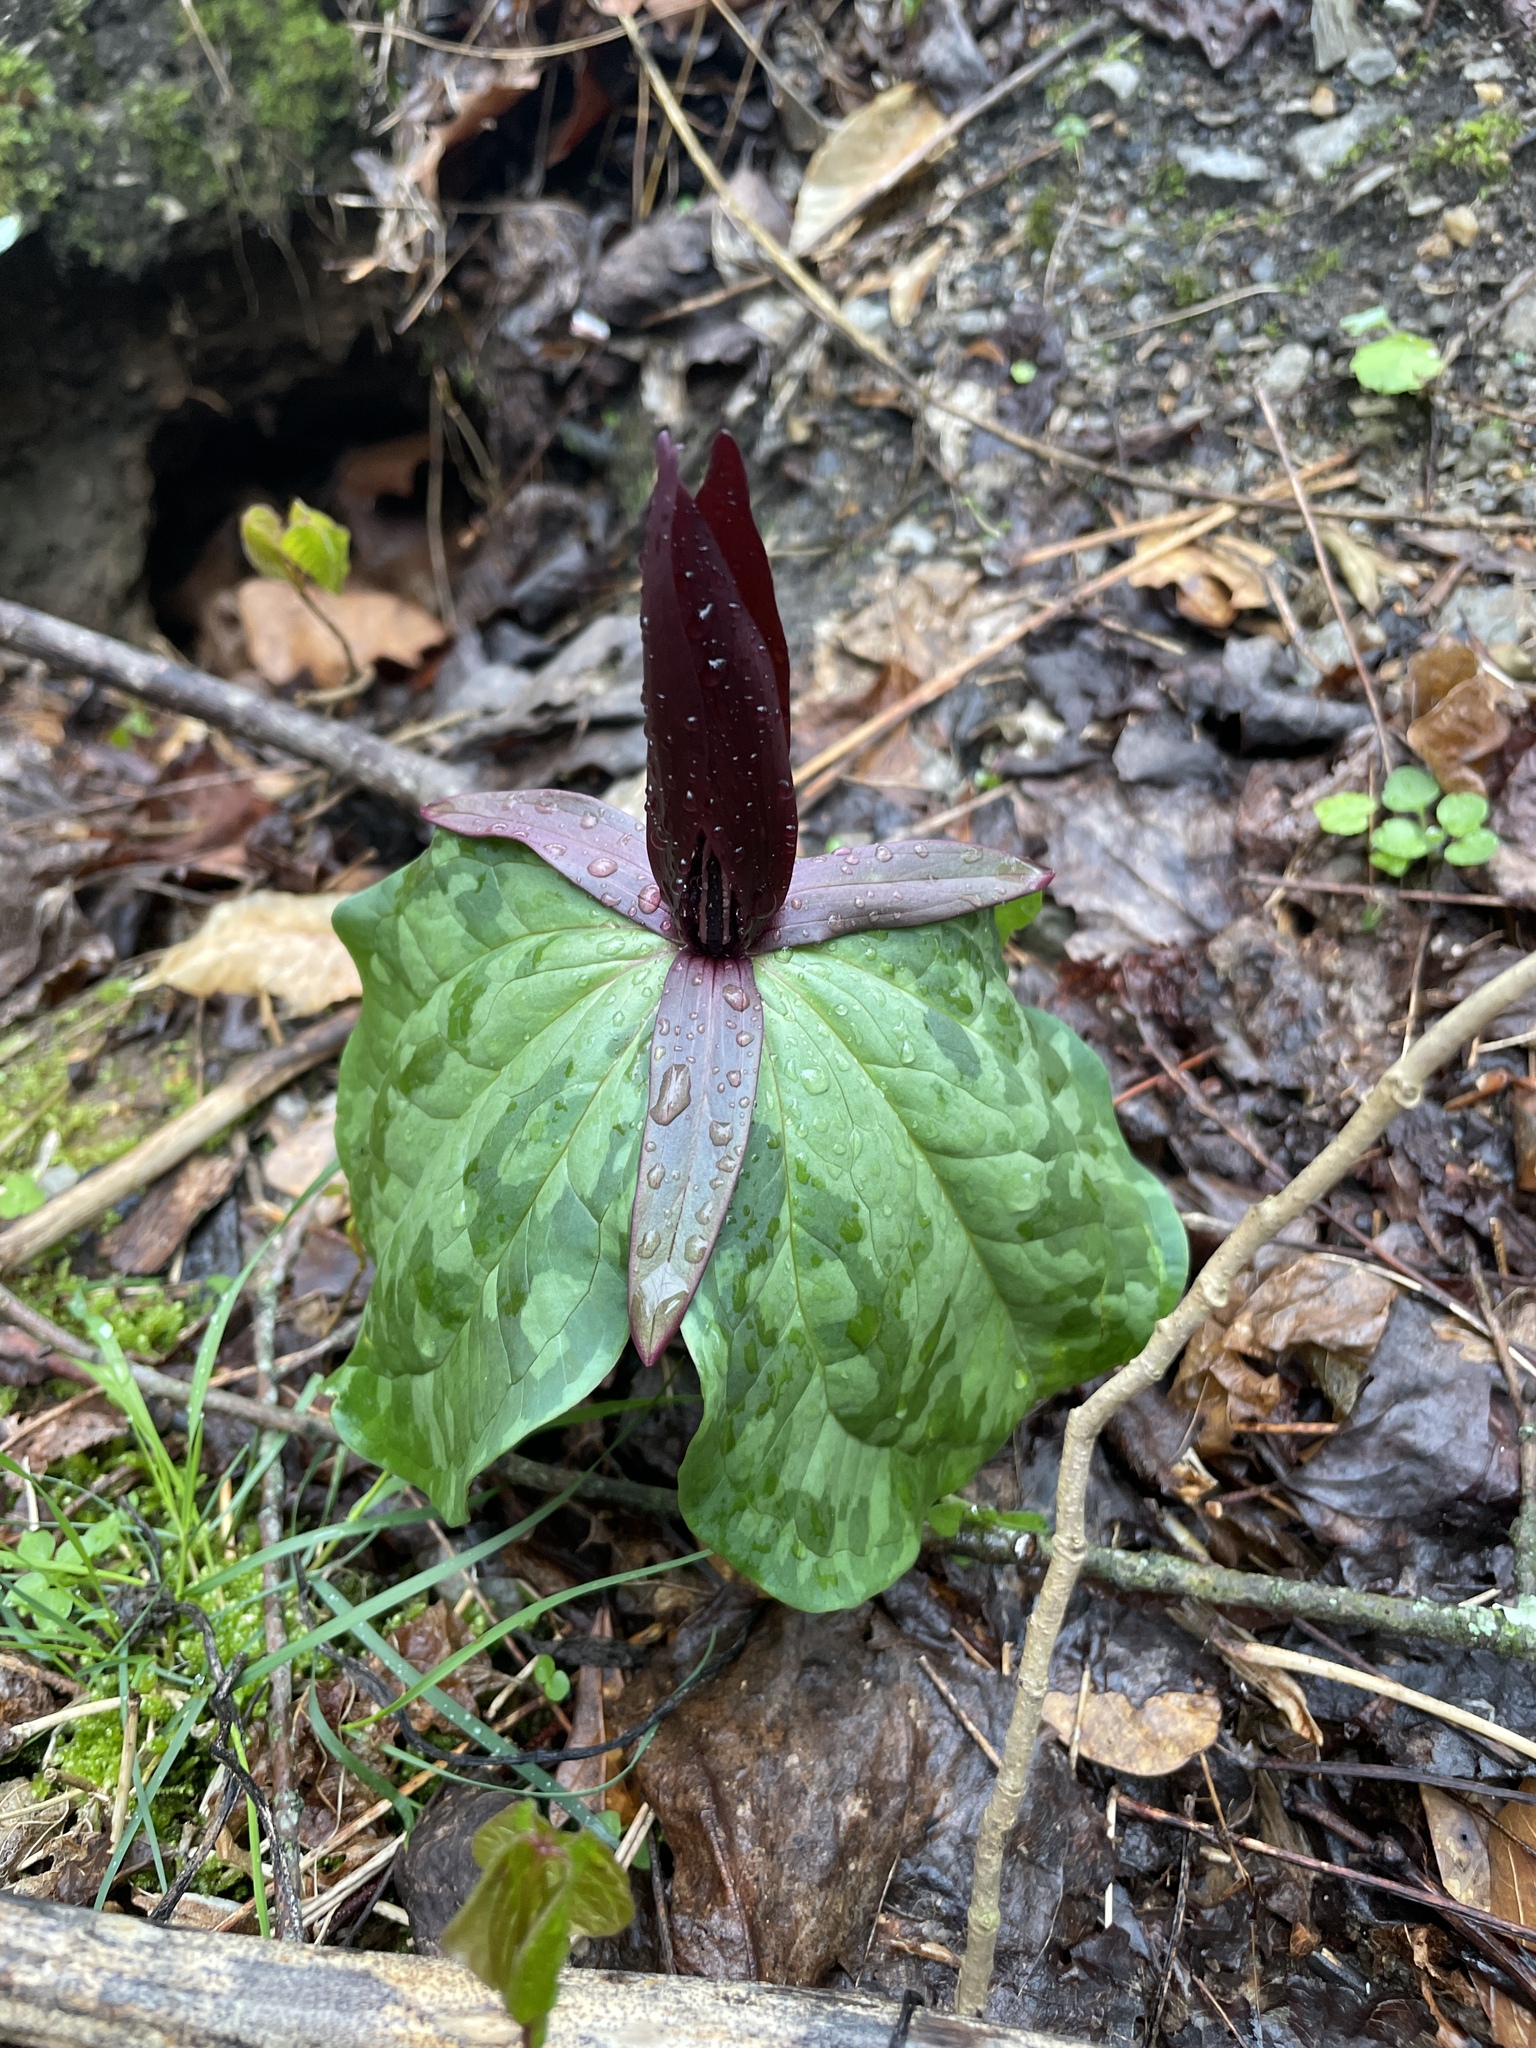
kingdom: Plantae
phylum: Tracheophyta
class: Liliopsida
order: Liliales
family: Melanthiaceae
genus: Trillium
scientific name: Trillium cuneatum
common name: Cuneate trillium
